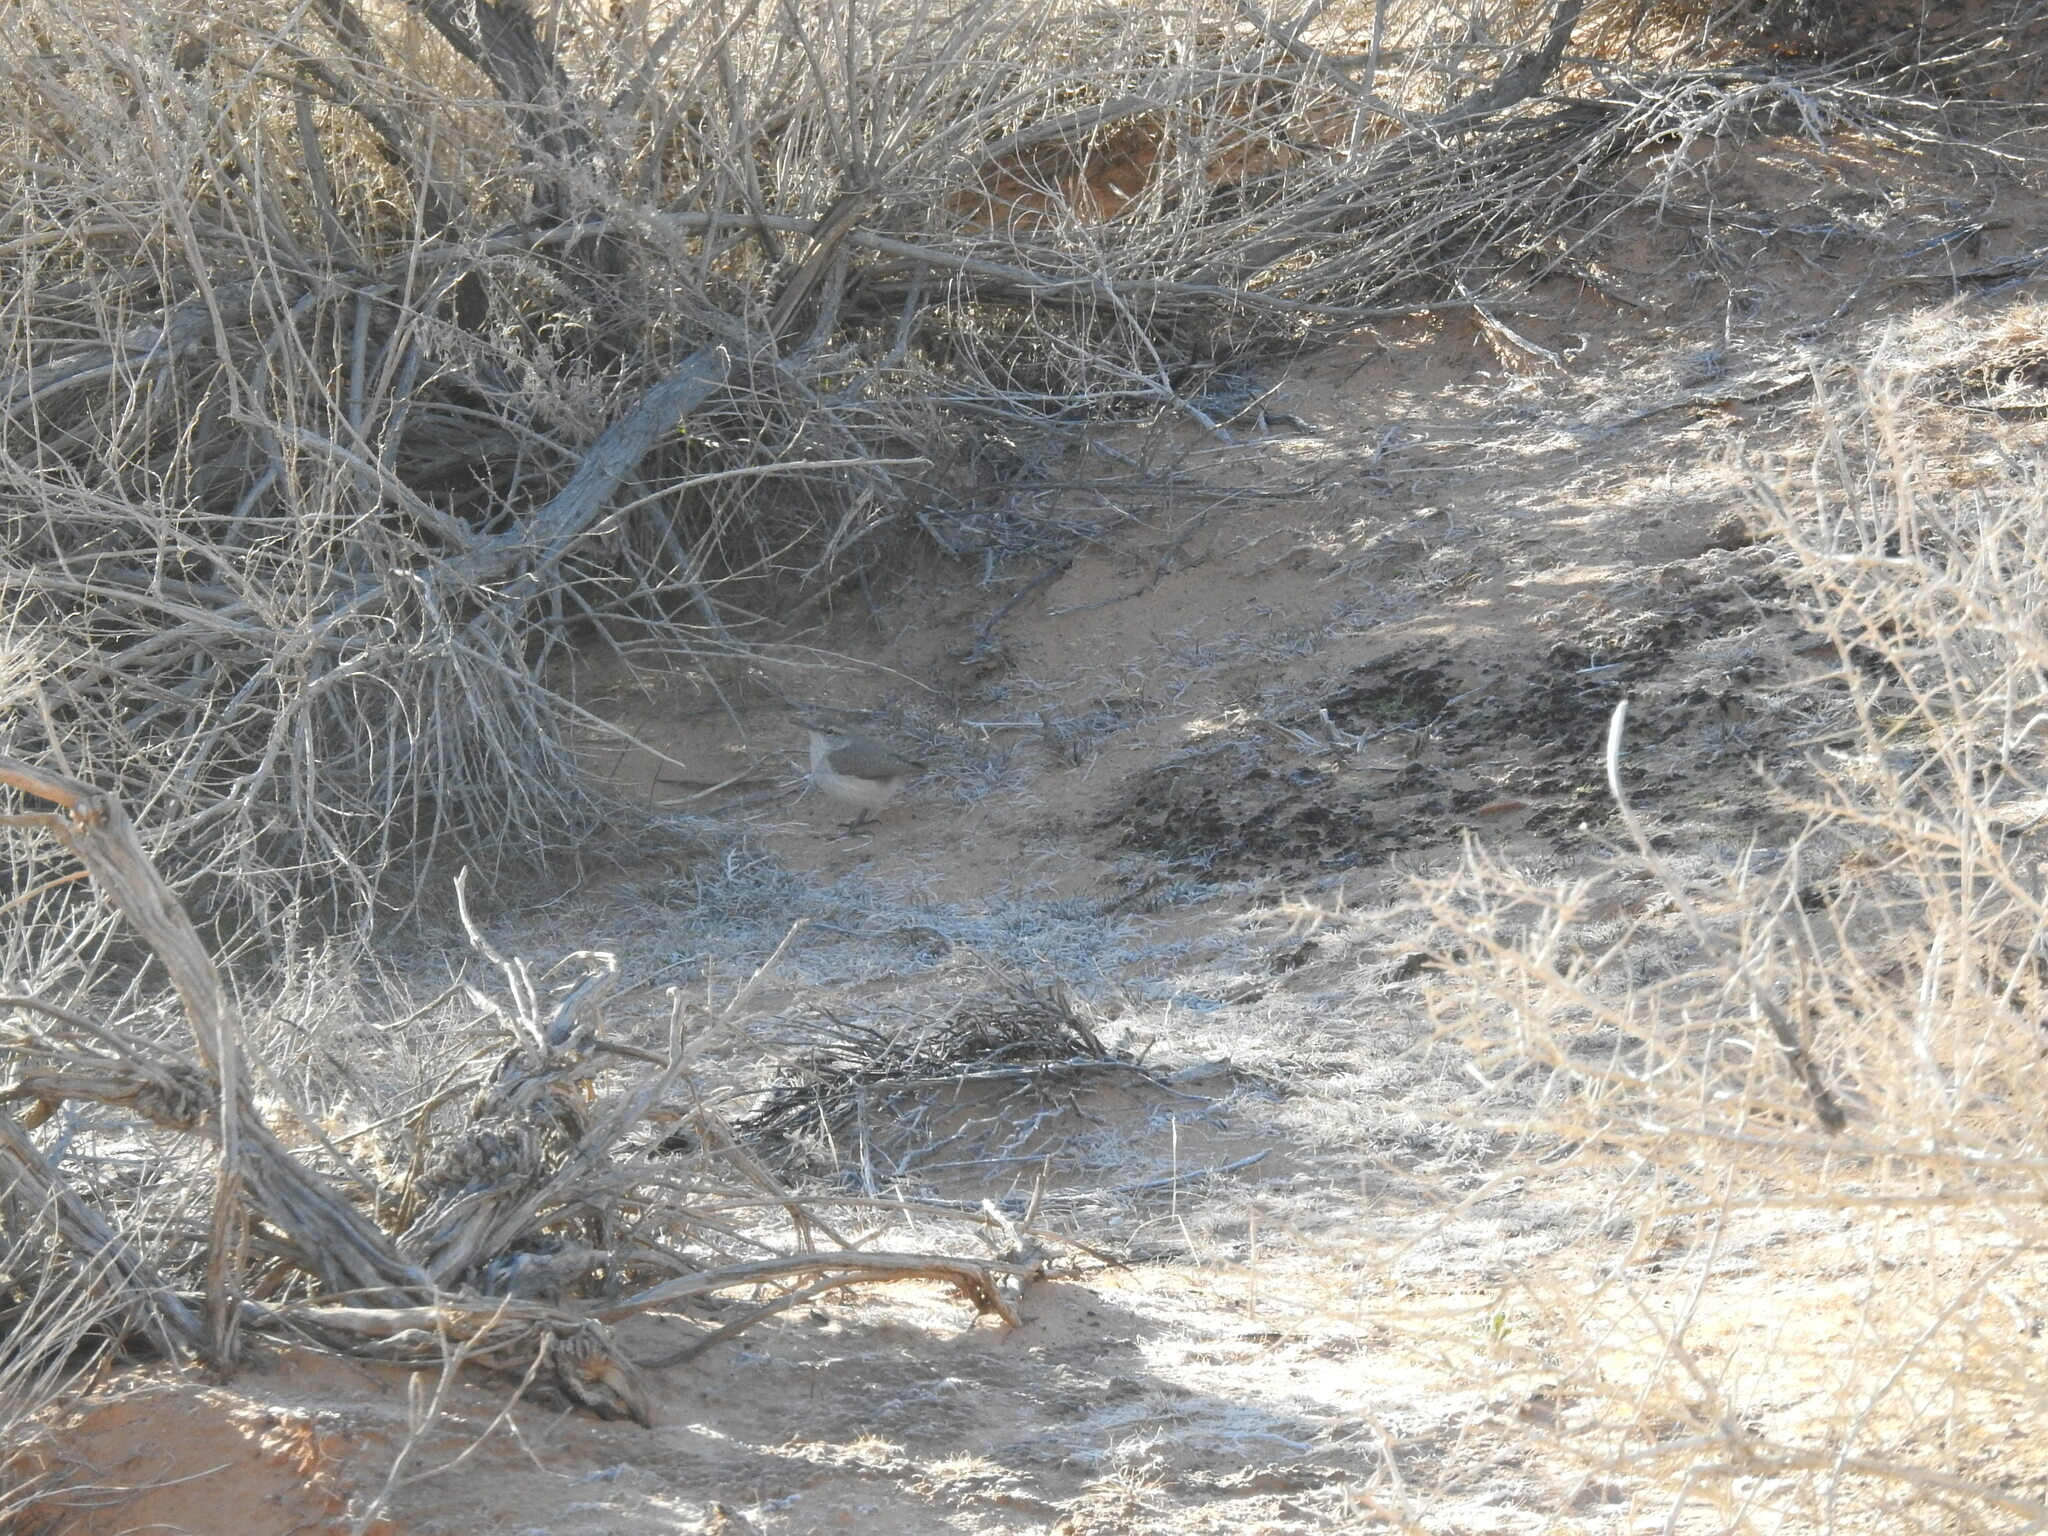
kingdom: Animalia
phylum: Chordata
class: Aves
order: Passeriformes
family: Troglodytidae
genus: Salpinctes
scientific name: Salpinctes obsoletus
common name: Rock wren
